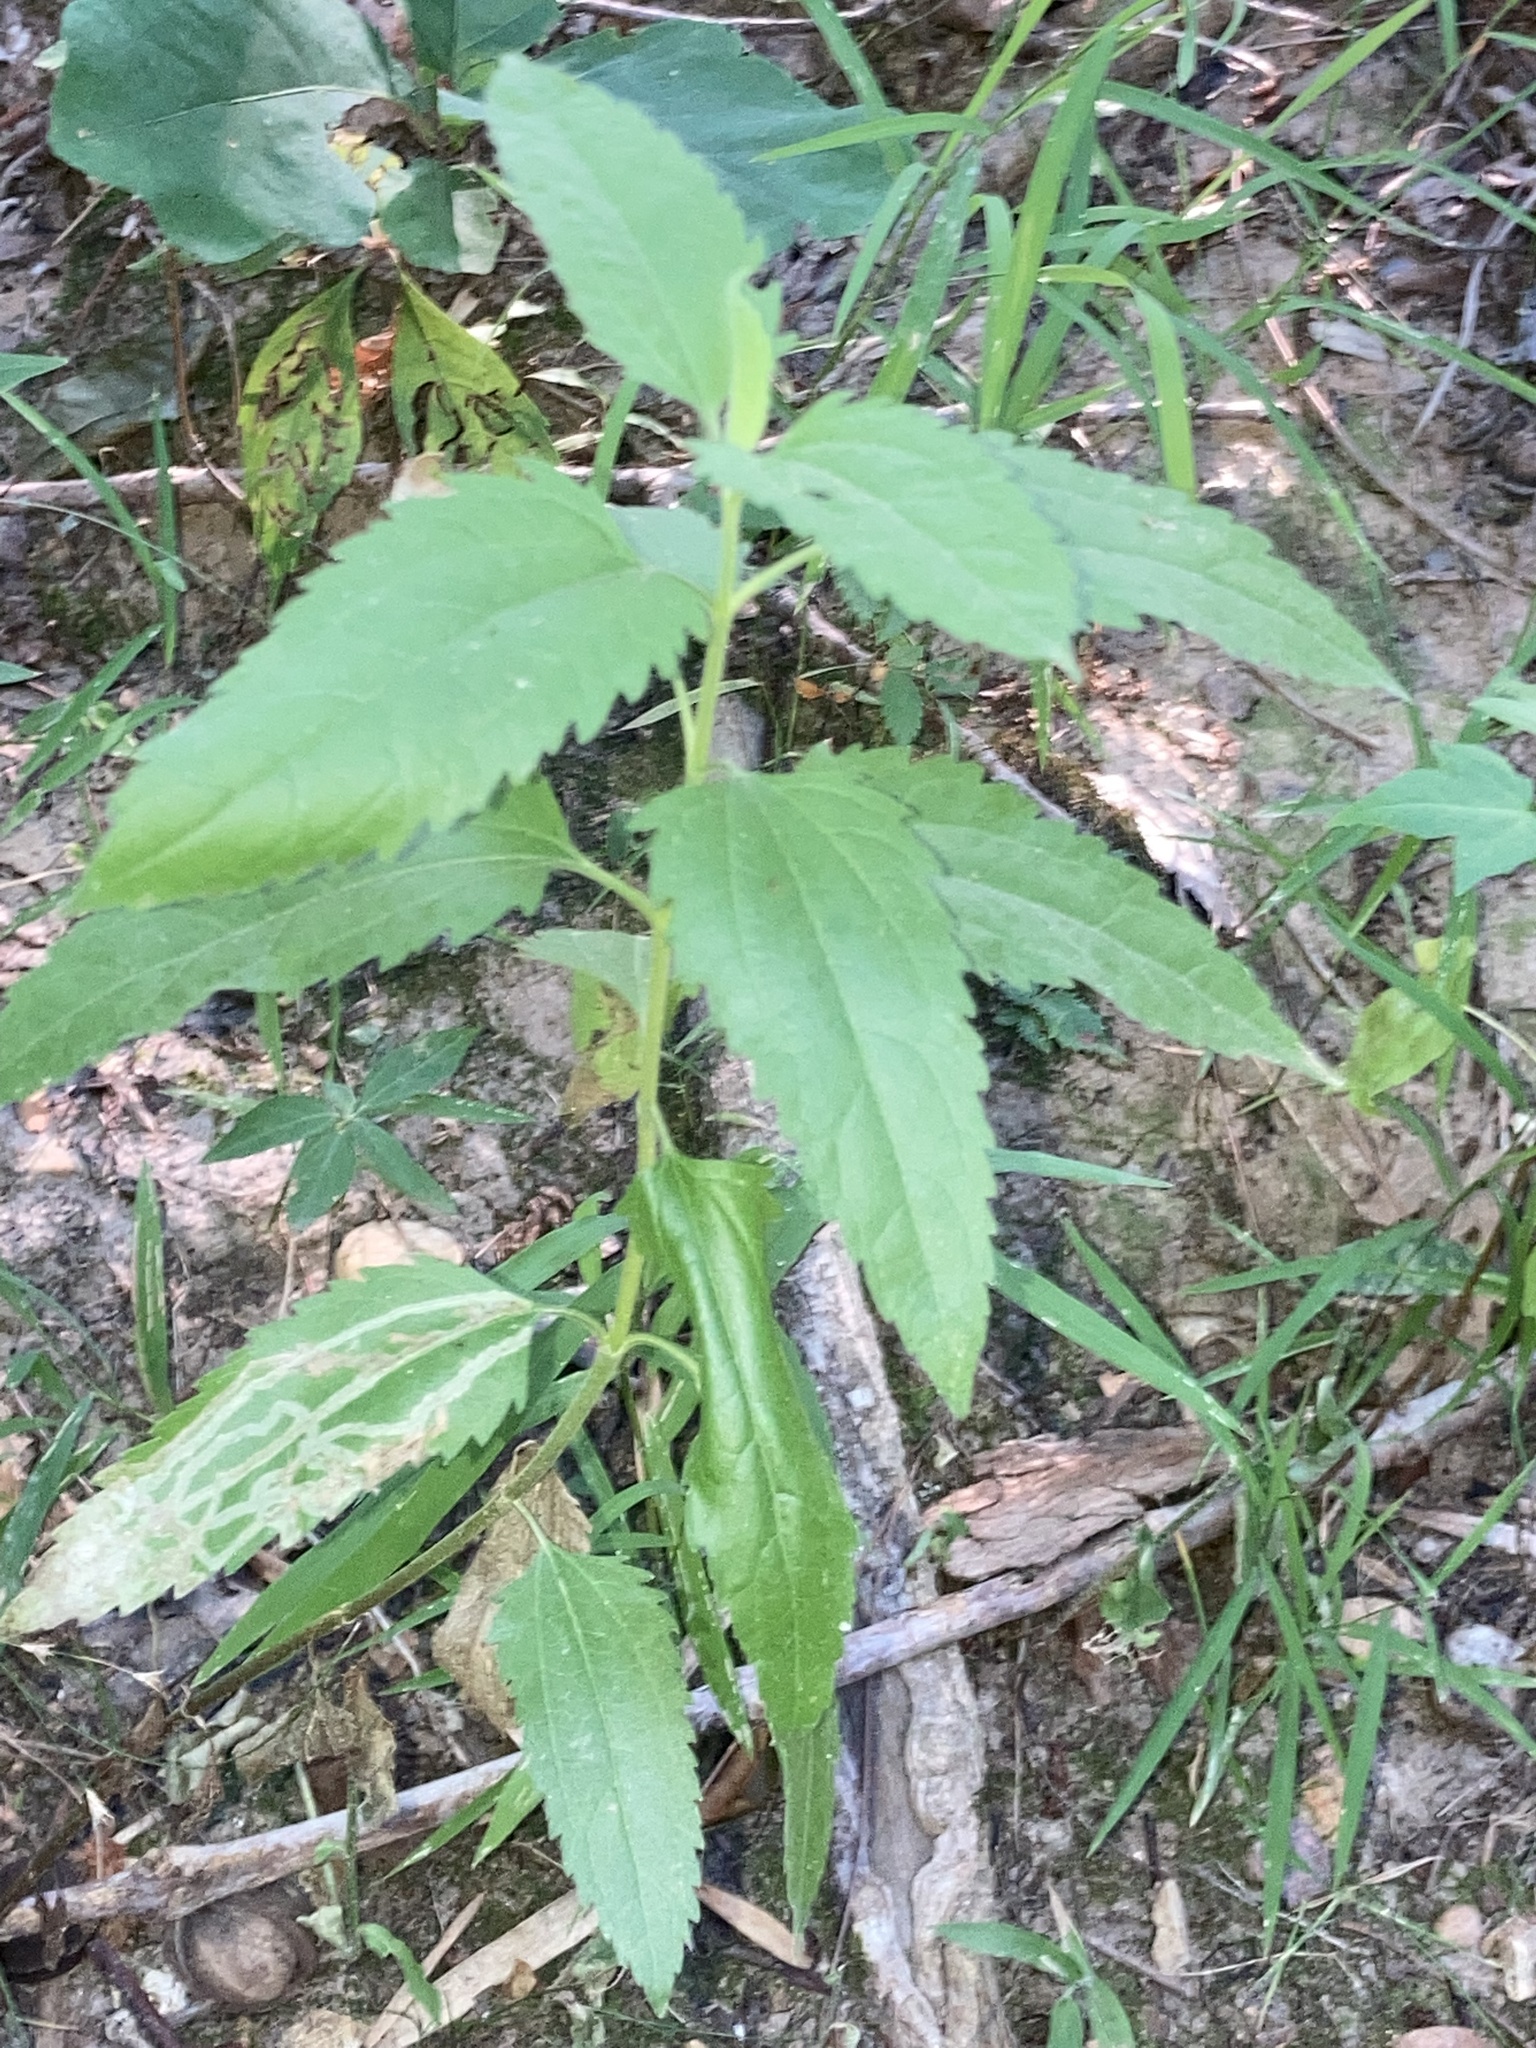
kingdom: Plantae
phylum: Tracheophyta
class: Magnoliopsida
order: Asterales
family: Asteraceae
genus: Eupatorium
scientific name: Eupatorium serotinum
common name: Late boneset
